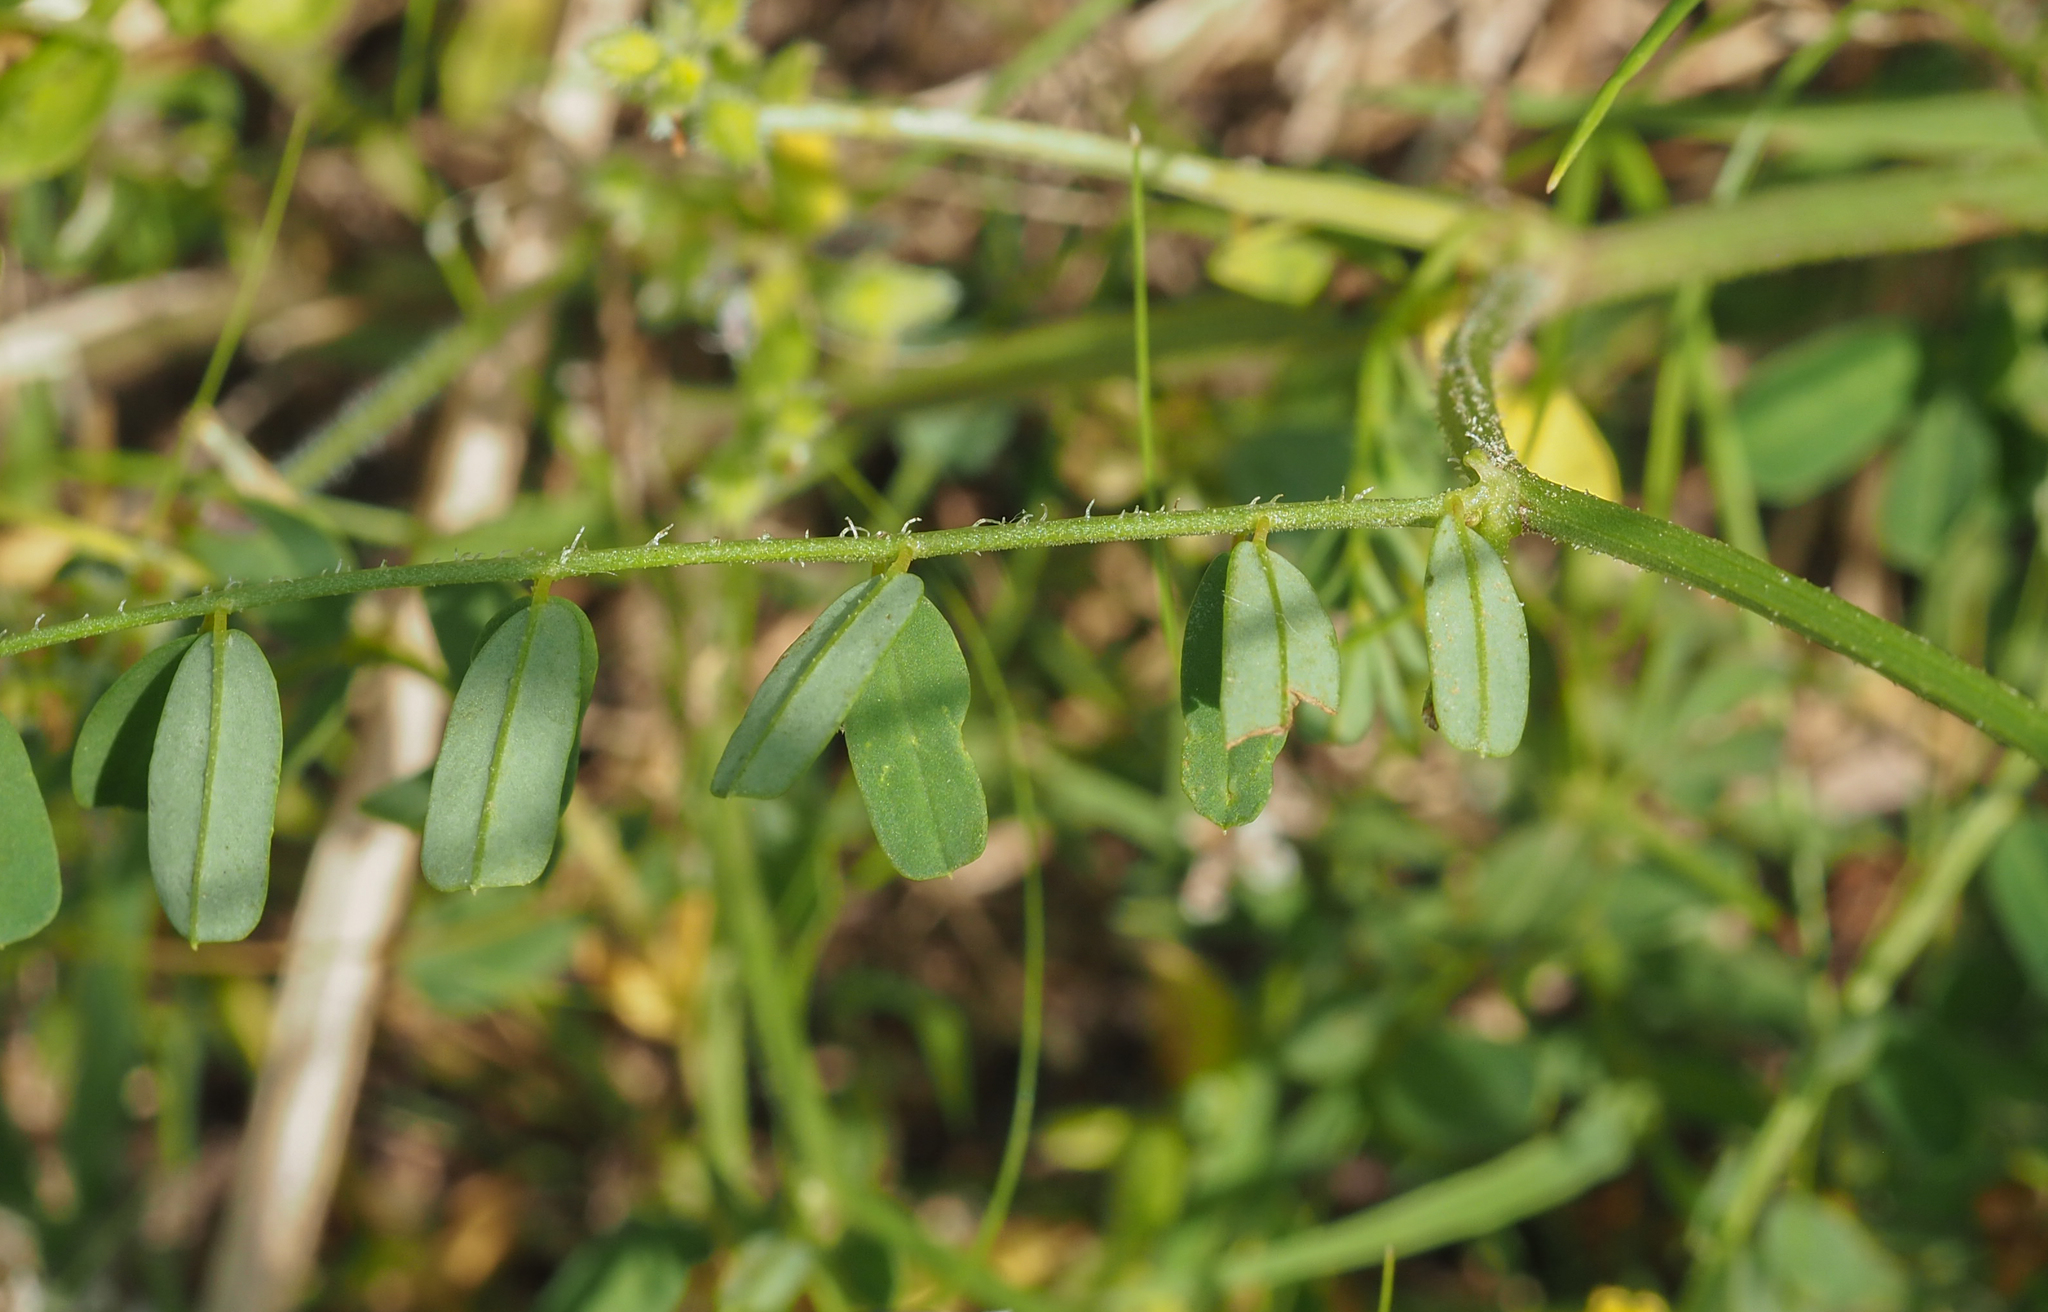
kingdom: Plantae
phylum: Tracheophyta
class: Magnoliopsida
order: Fabales
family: Fabaceae
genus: Coronilla
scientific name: Coronilla varia
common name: Crownvetch
